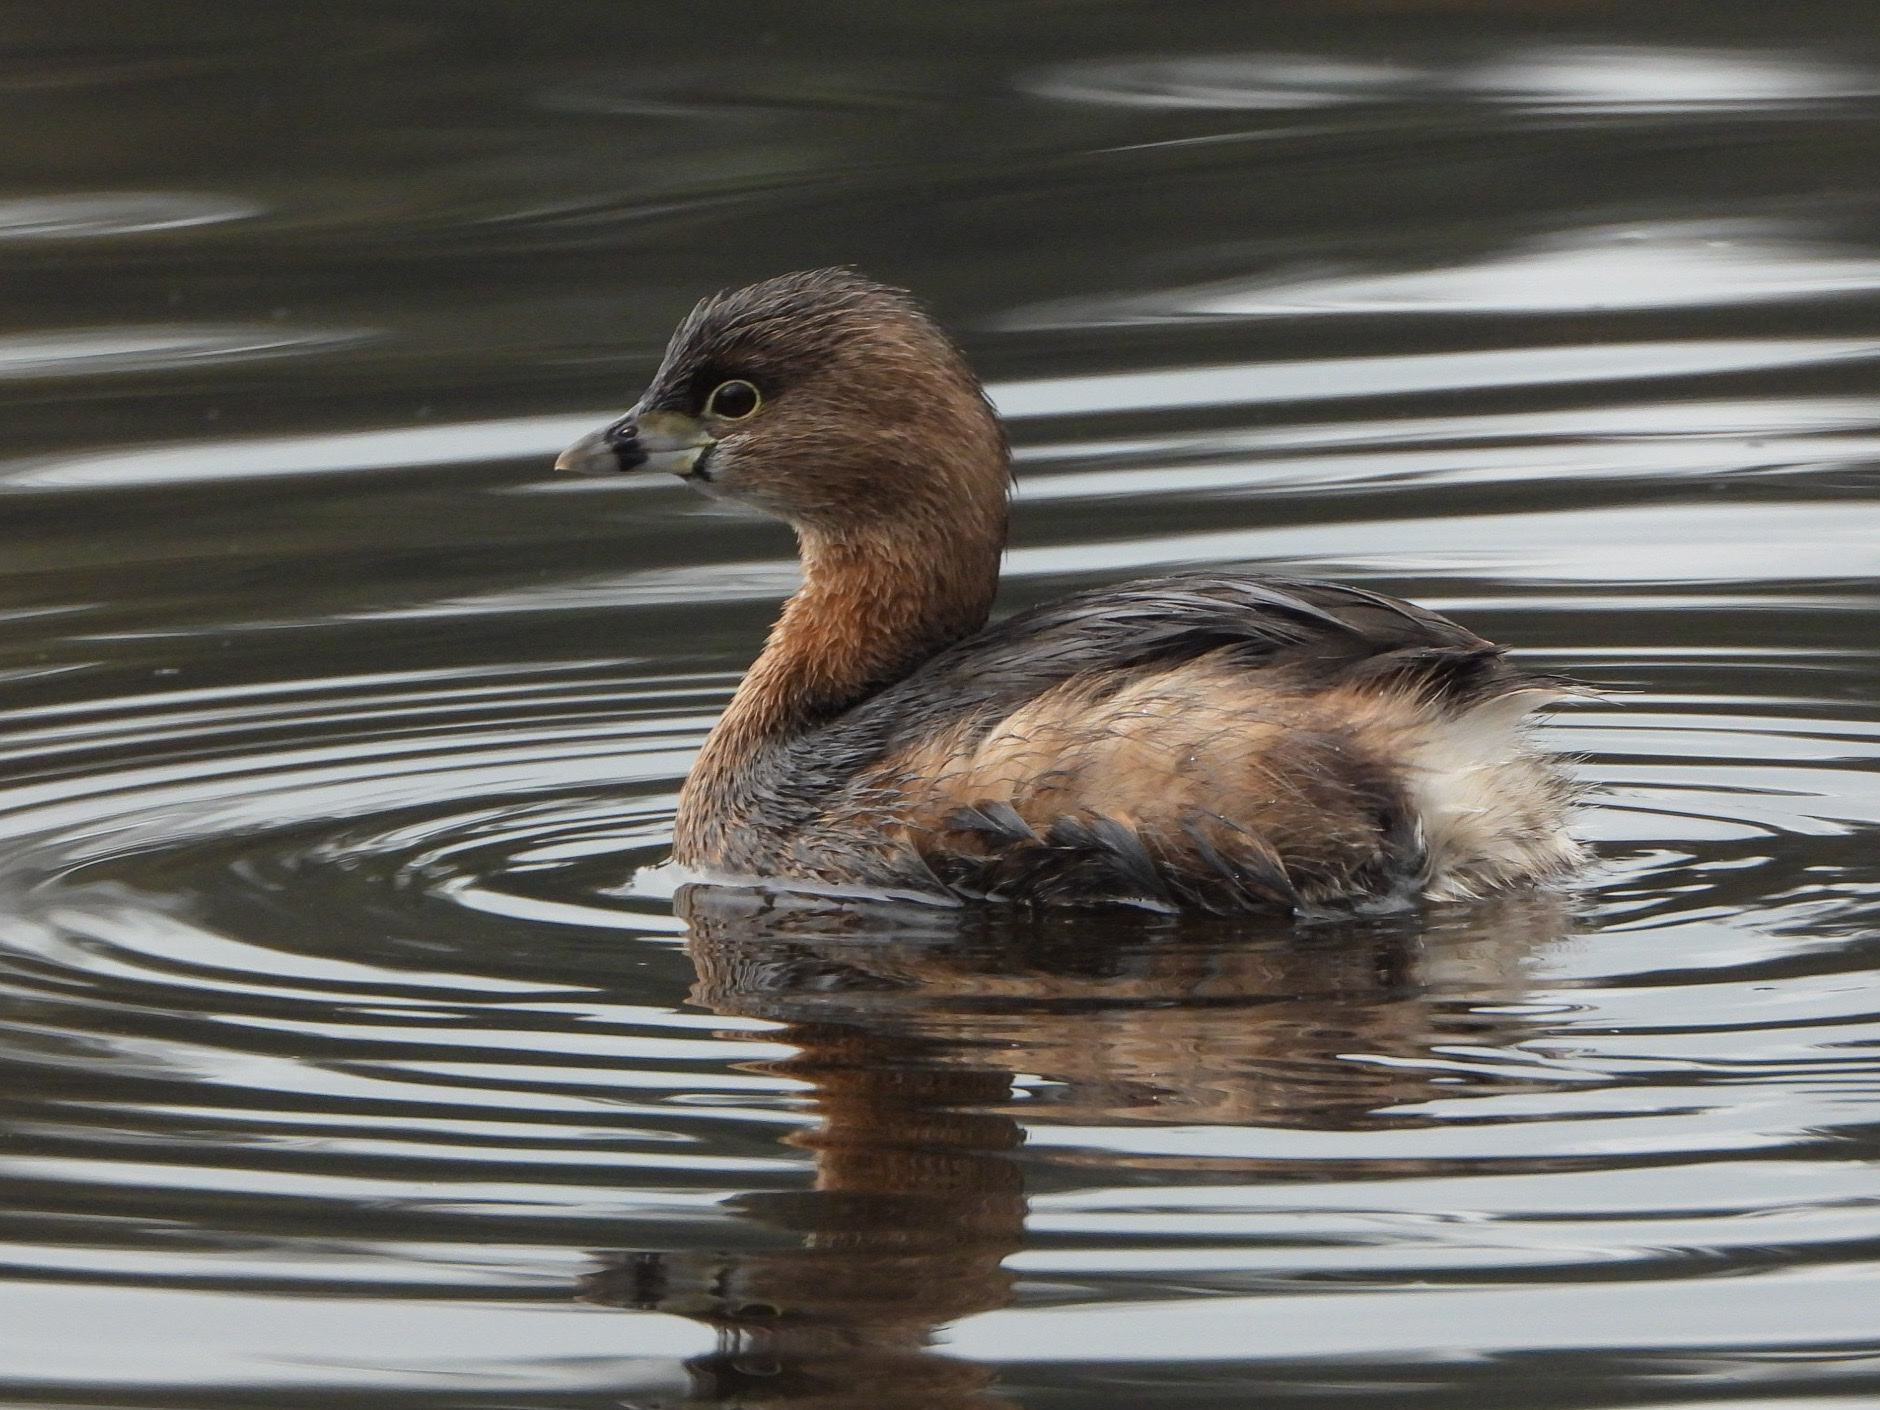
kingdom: Animalia
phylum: Chordata
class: Aves
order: Podicipediformes
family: Podicipedidae
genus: Podilymbus
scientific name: Podilymbus podiceps
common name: Pied-billed grebe
